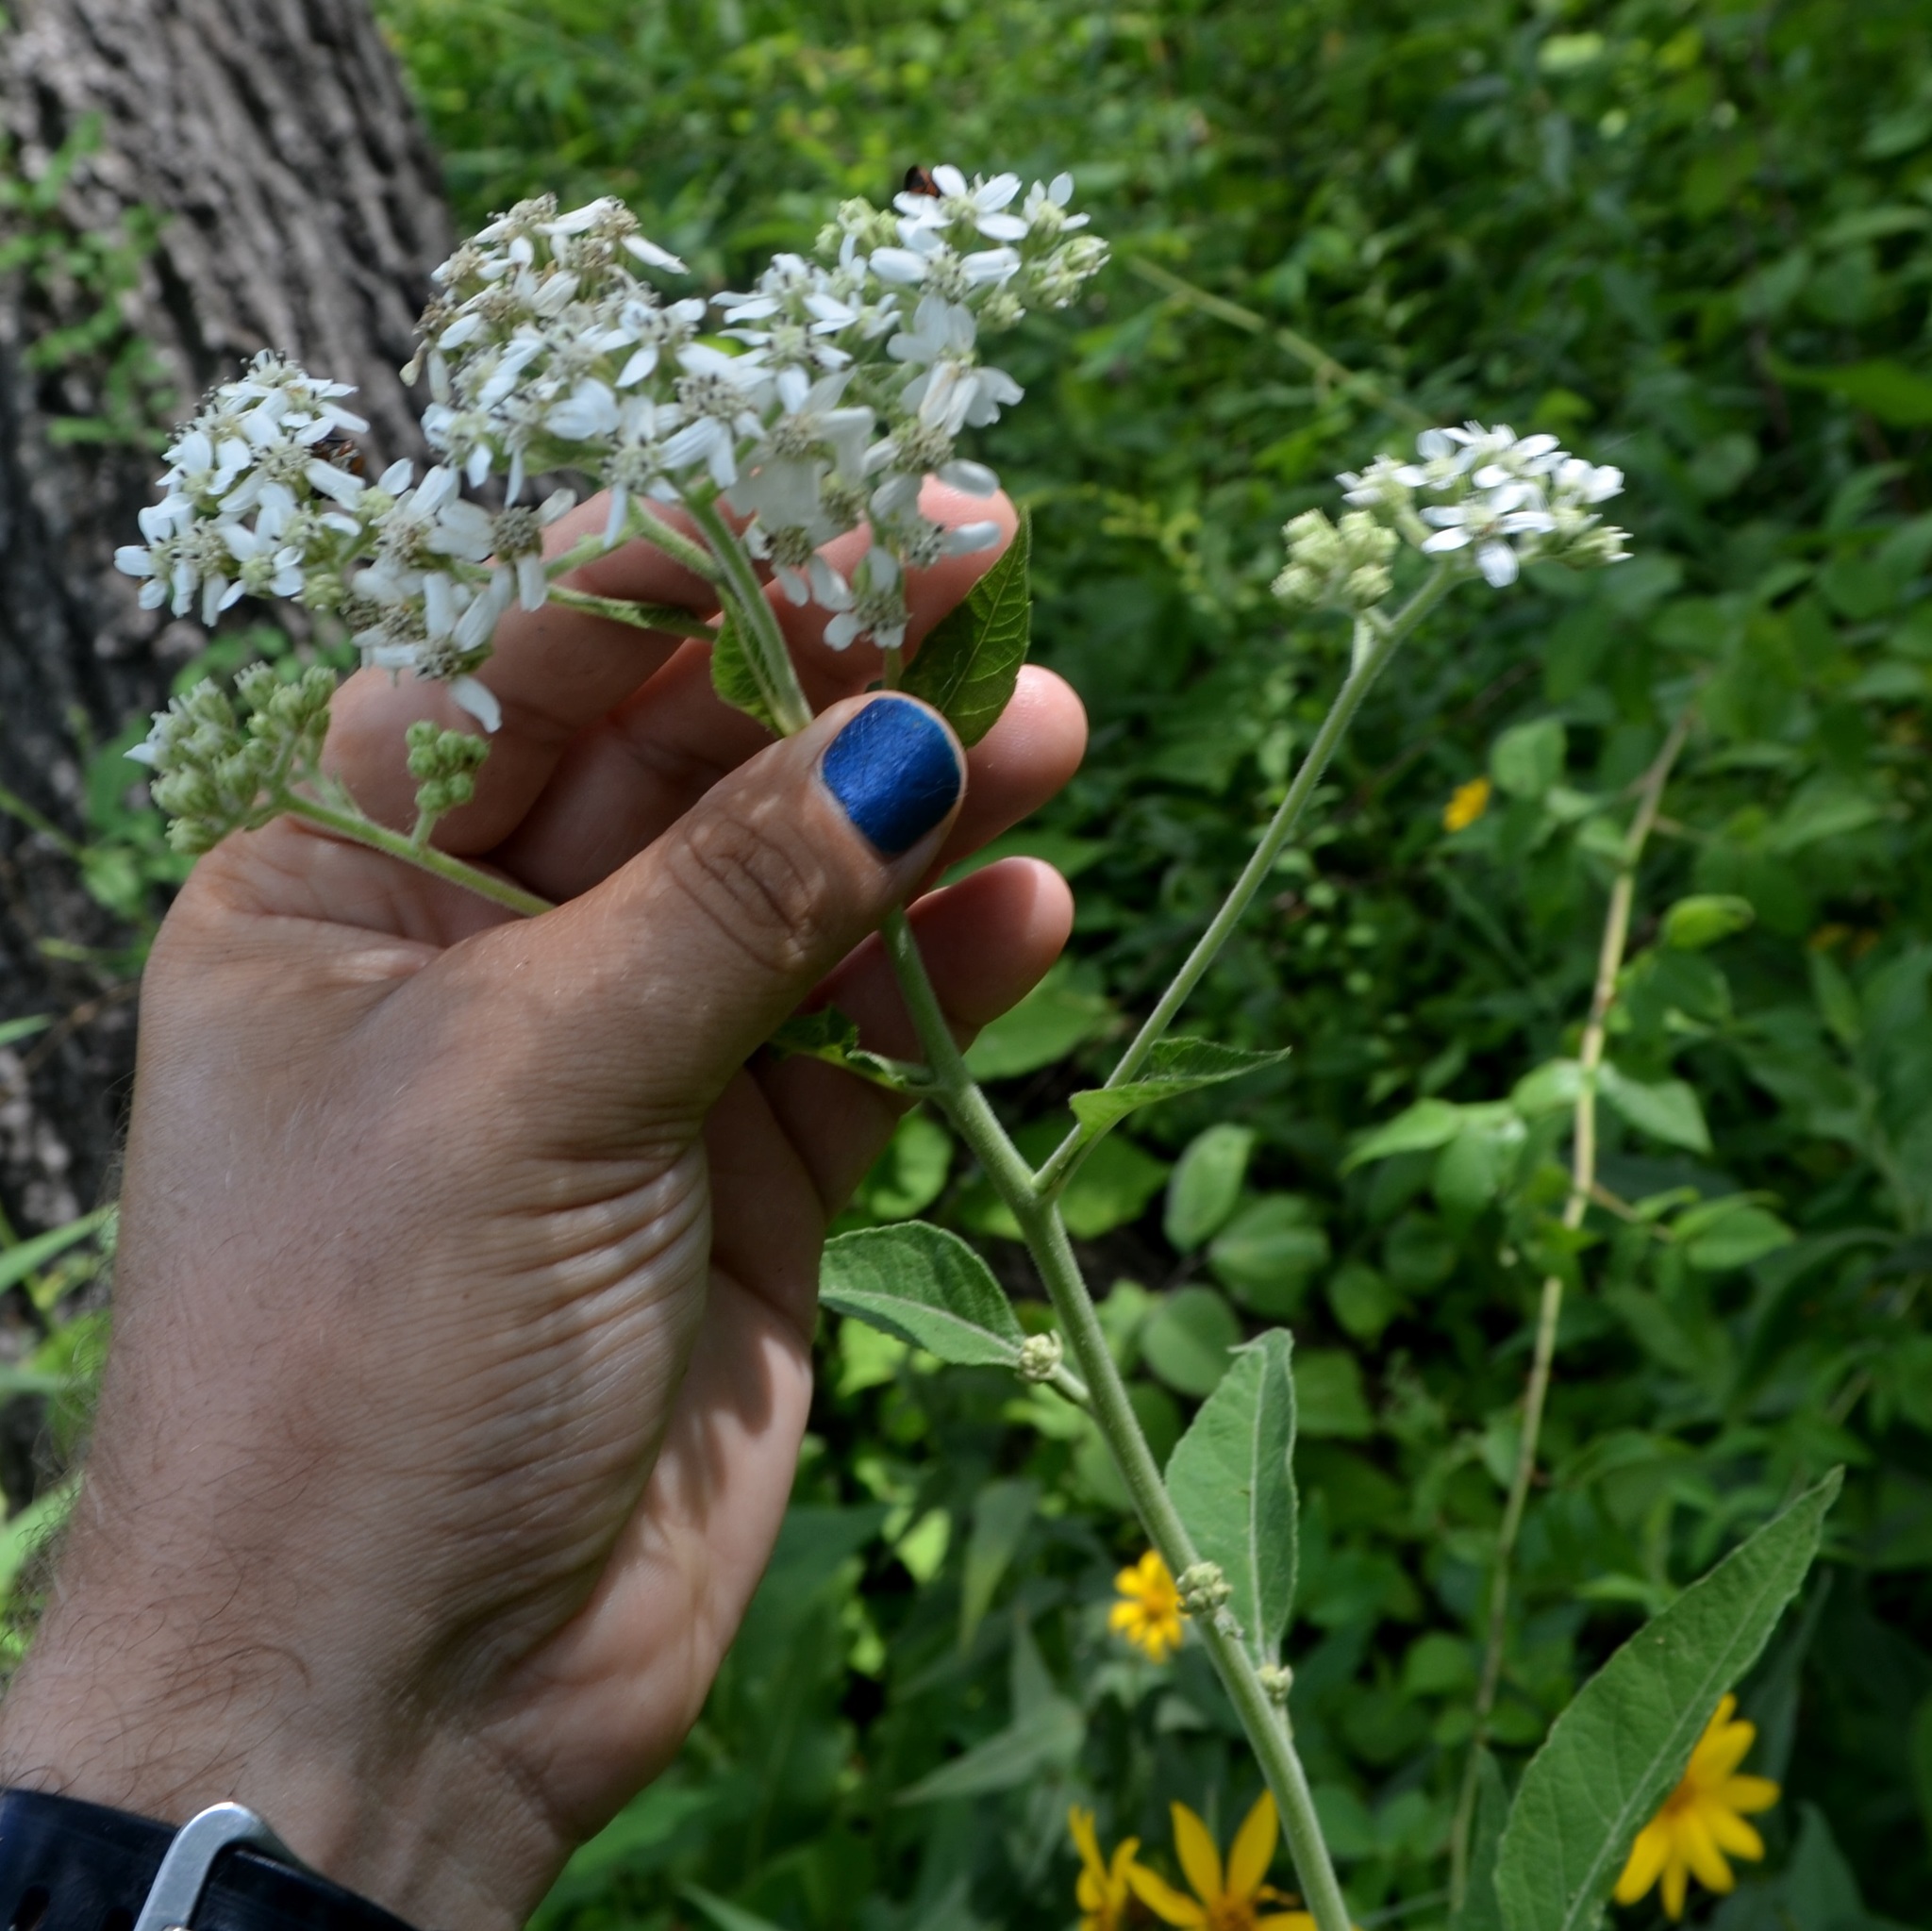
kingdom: Plantae
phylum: Tracheophyta
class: Magnoliopsida
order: Asterales
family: Asteraceae
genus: Verbesina
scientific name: Verbesina virginica
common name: Frostweed
